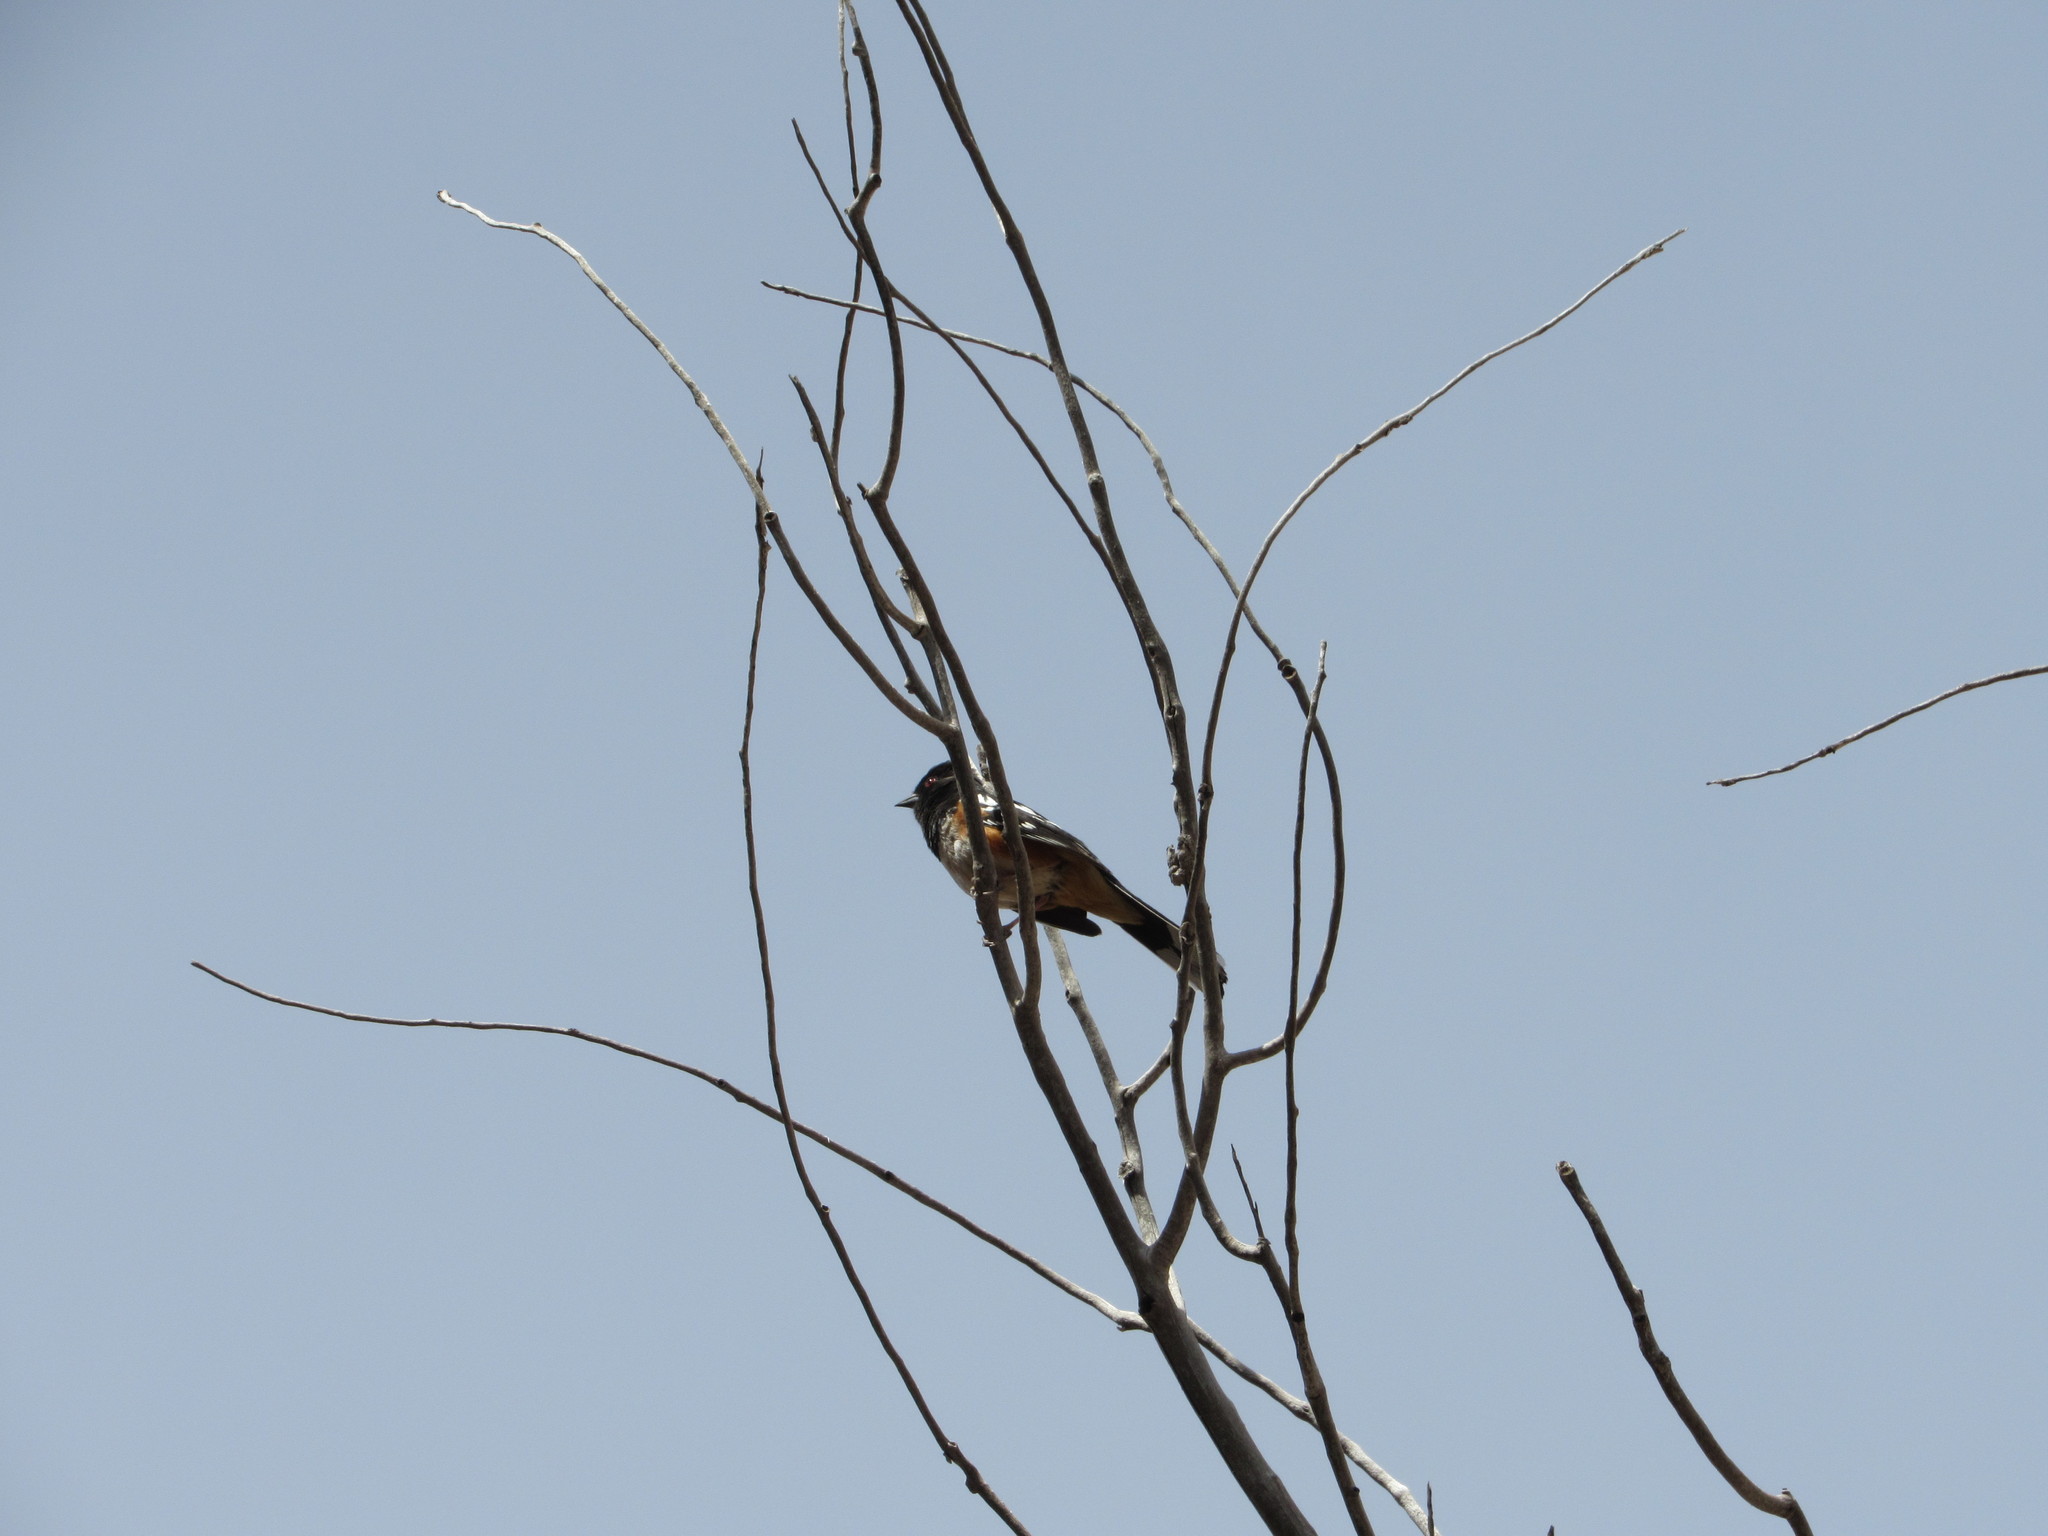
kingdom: Animalia
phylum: Chordata
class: Aves
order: Passeriformes
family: Passerellidae
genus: Pipilo
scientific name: Pipilo maculatus
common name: Spotted towhee
